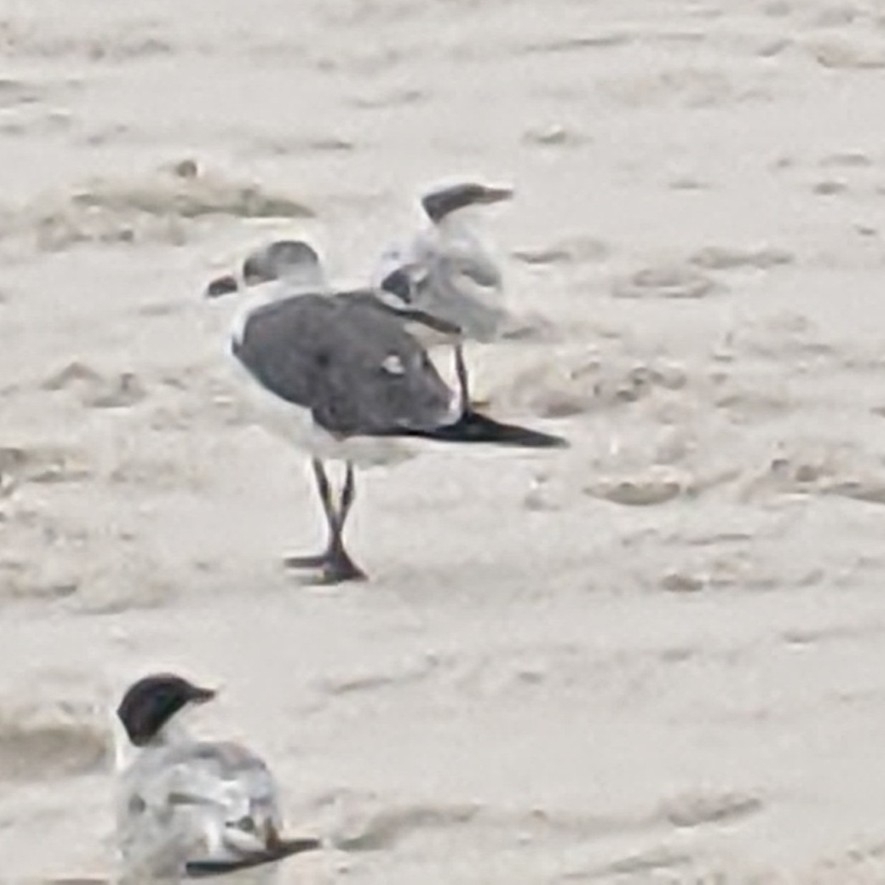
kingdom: Animalia
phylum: Chordata
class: Aves
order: Charadriiformes
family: Laridae
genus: Leucophaeus
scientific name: Leucophaeus atricilla
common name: Laughing gull
